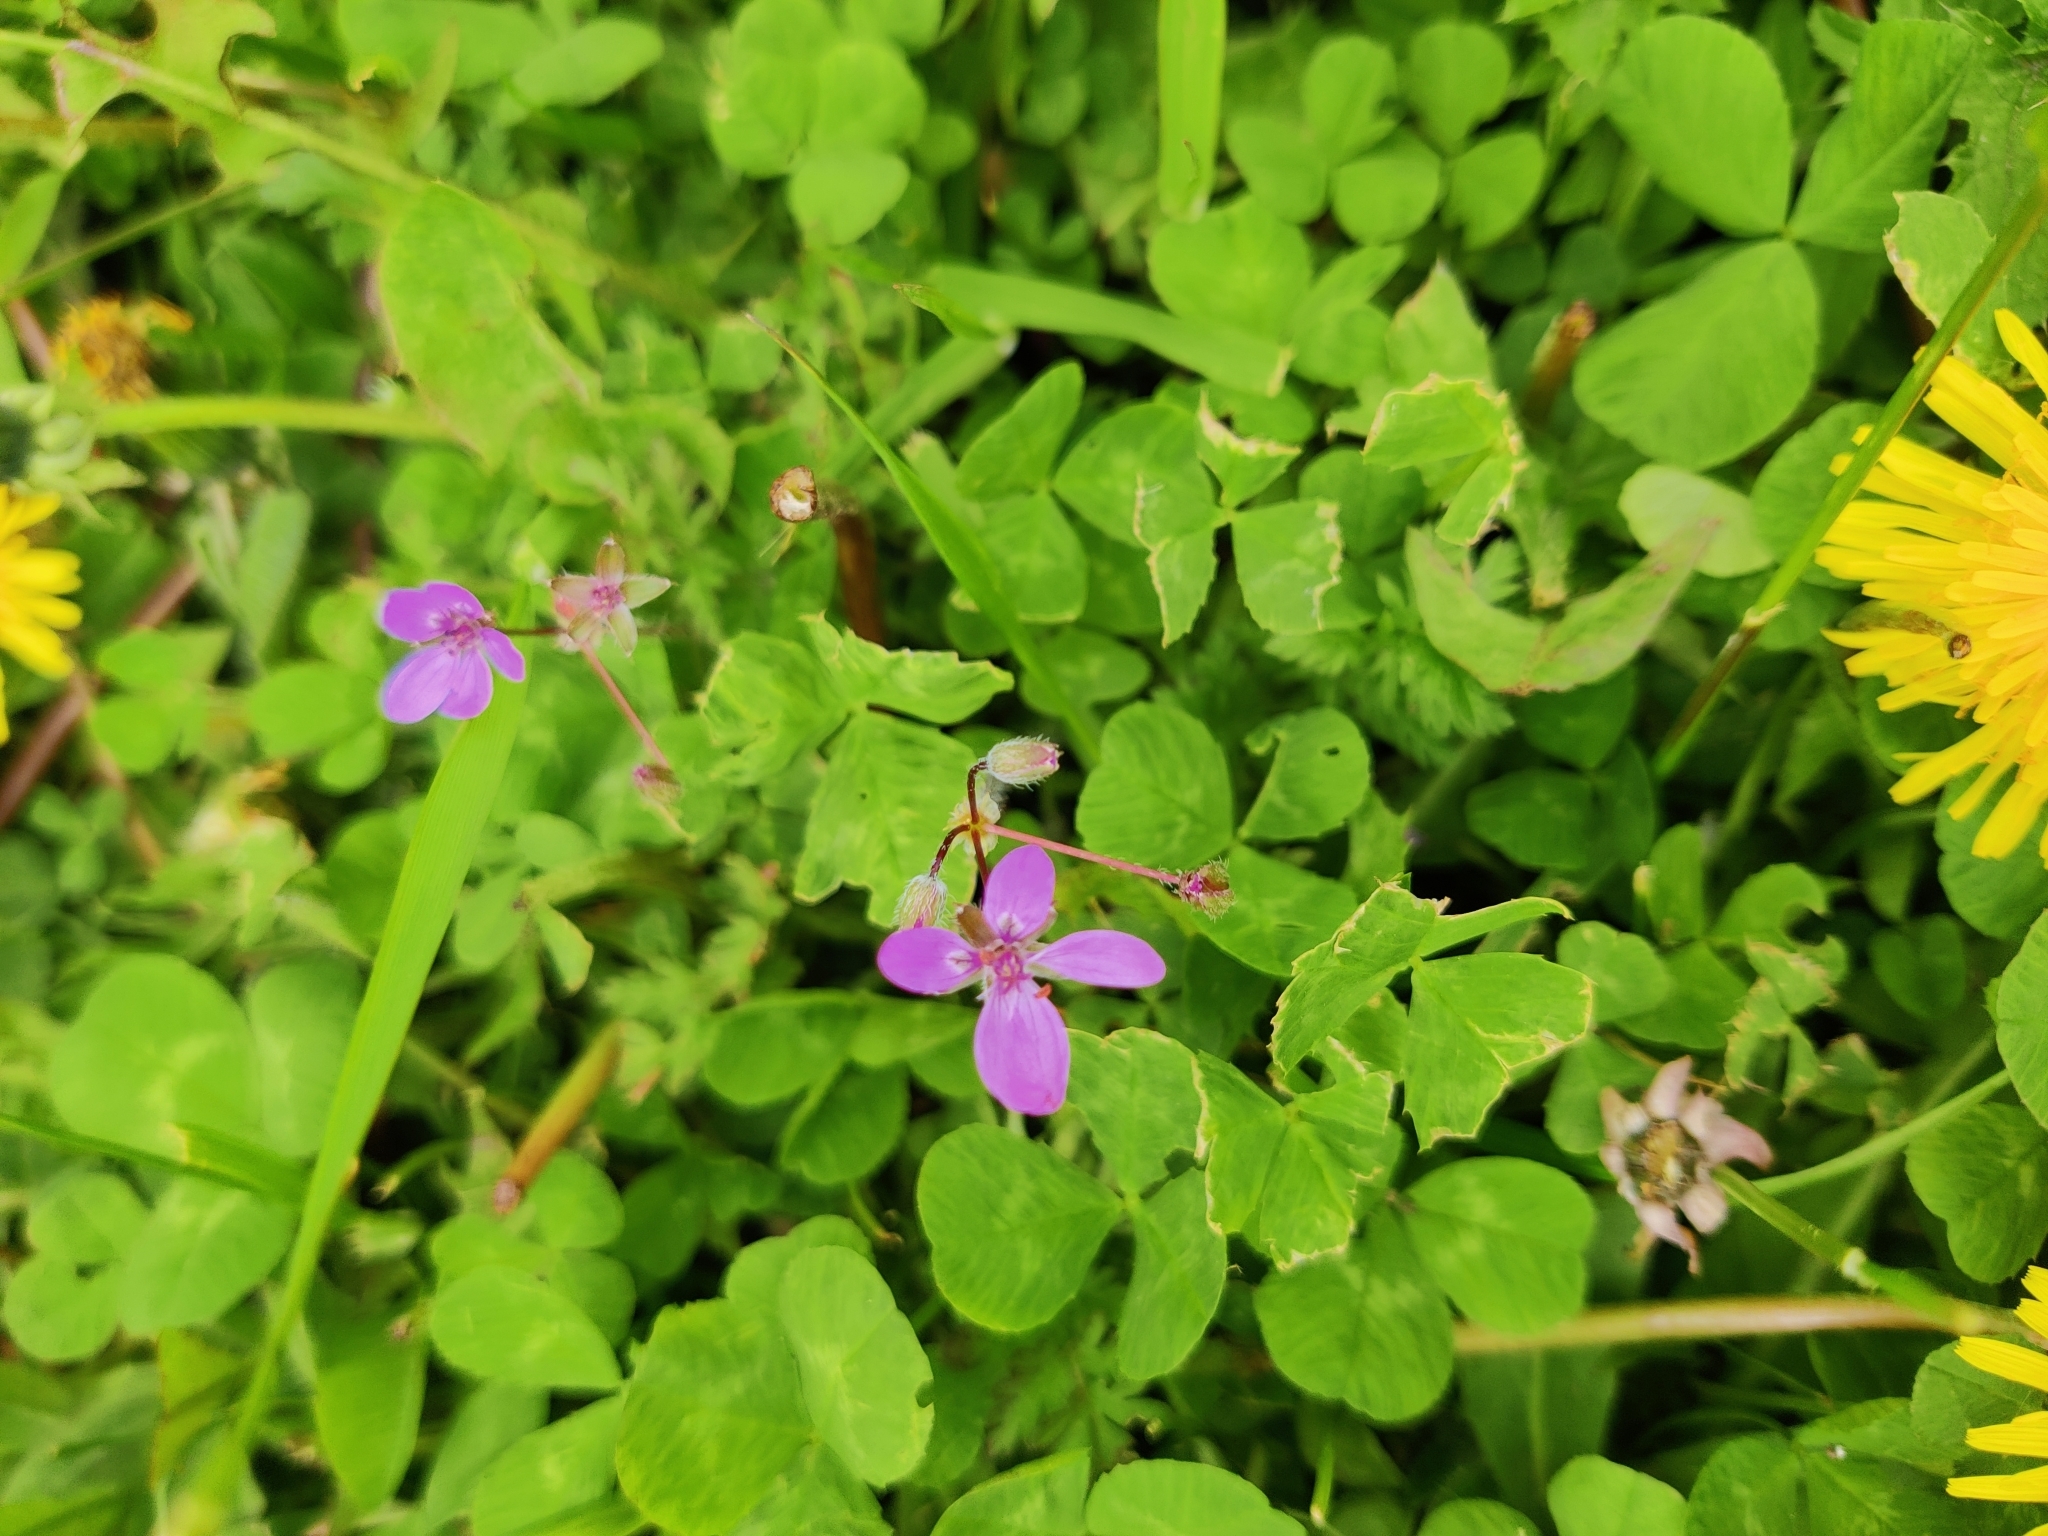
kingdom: Plantae
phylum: Tracheophyta
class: Magnoliopsida
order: Geraniales
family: Geraniaceae
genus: Erodium
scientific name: Erodium cicutarium
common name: Common stork's-bill
